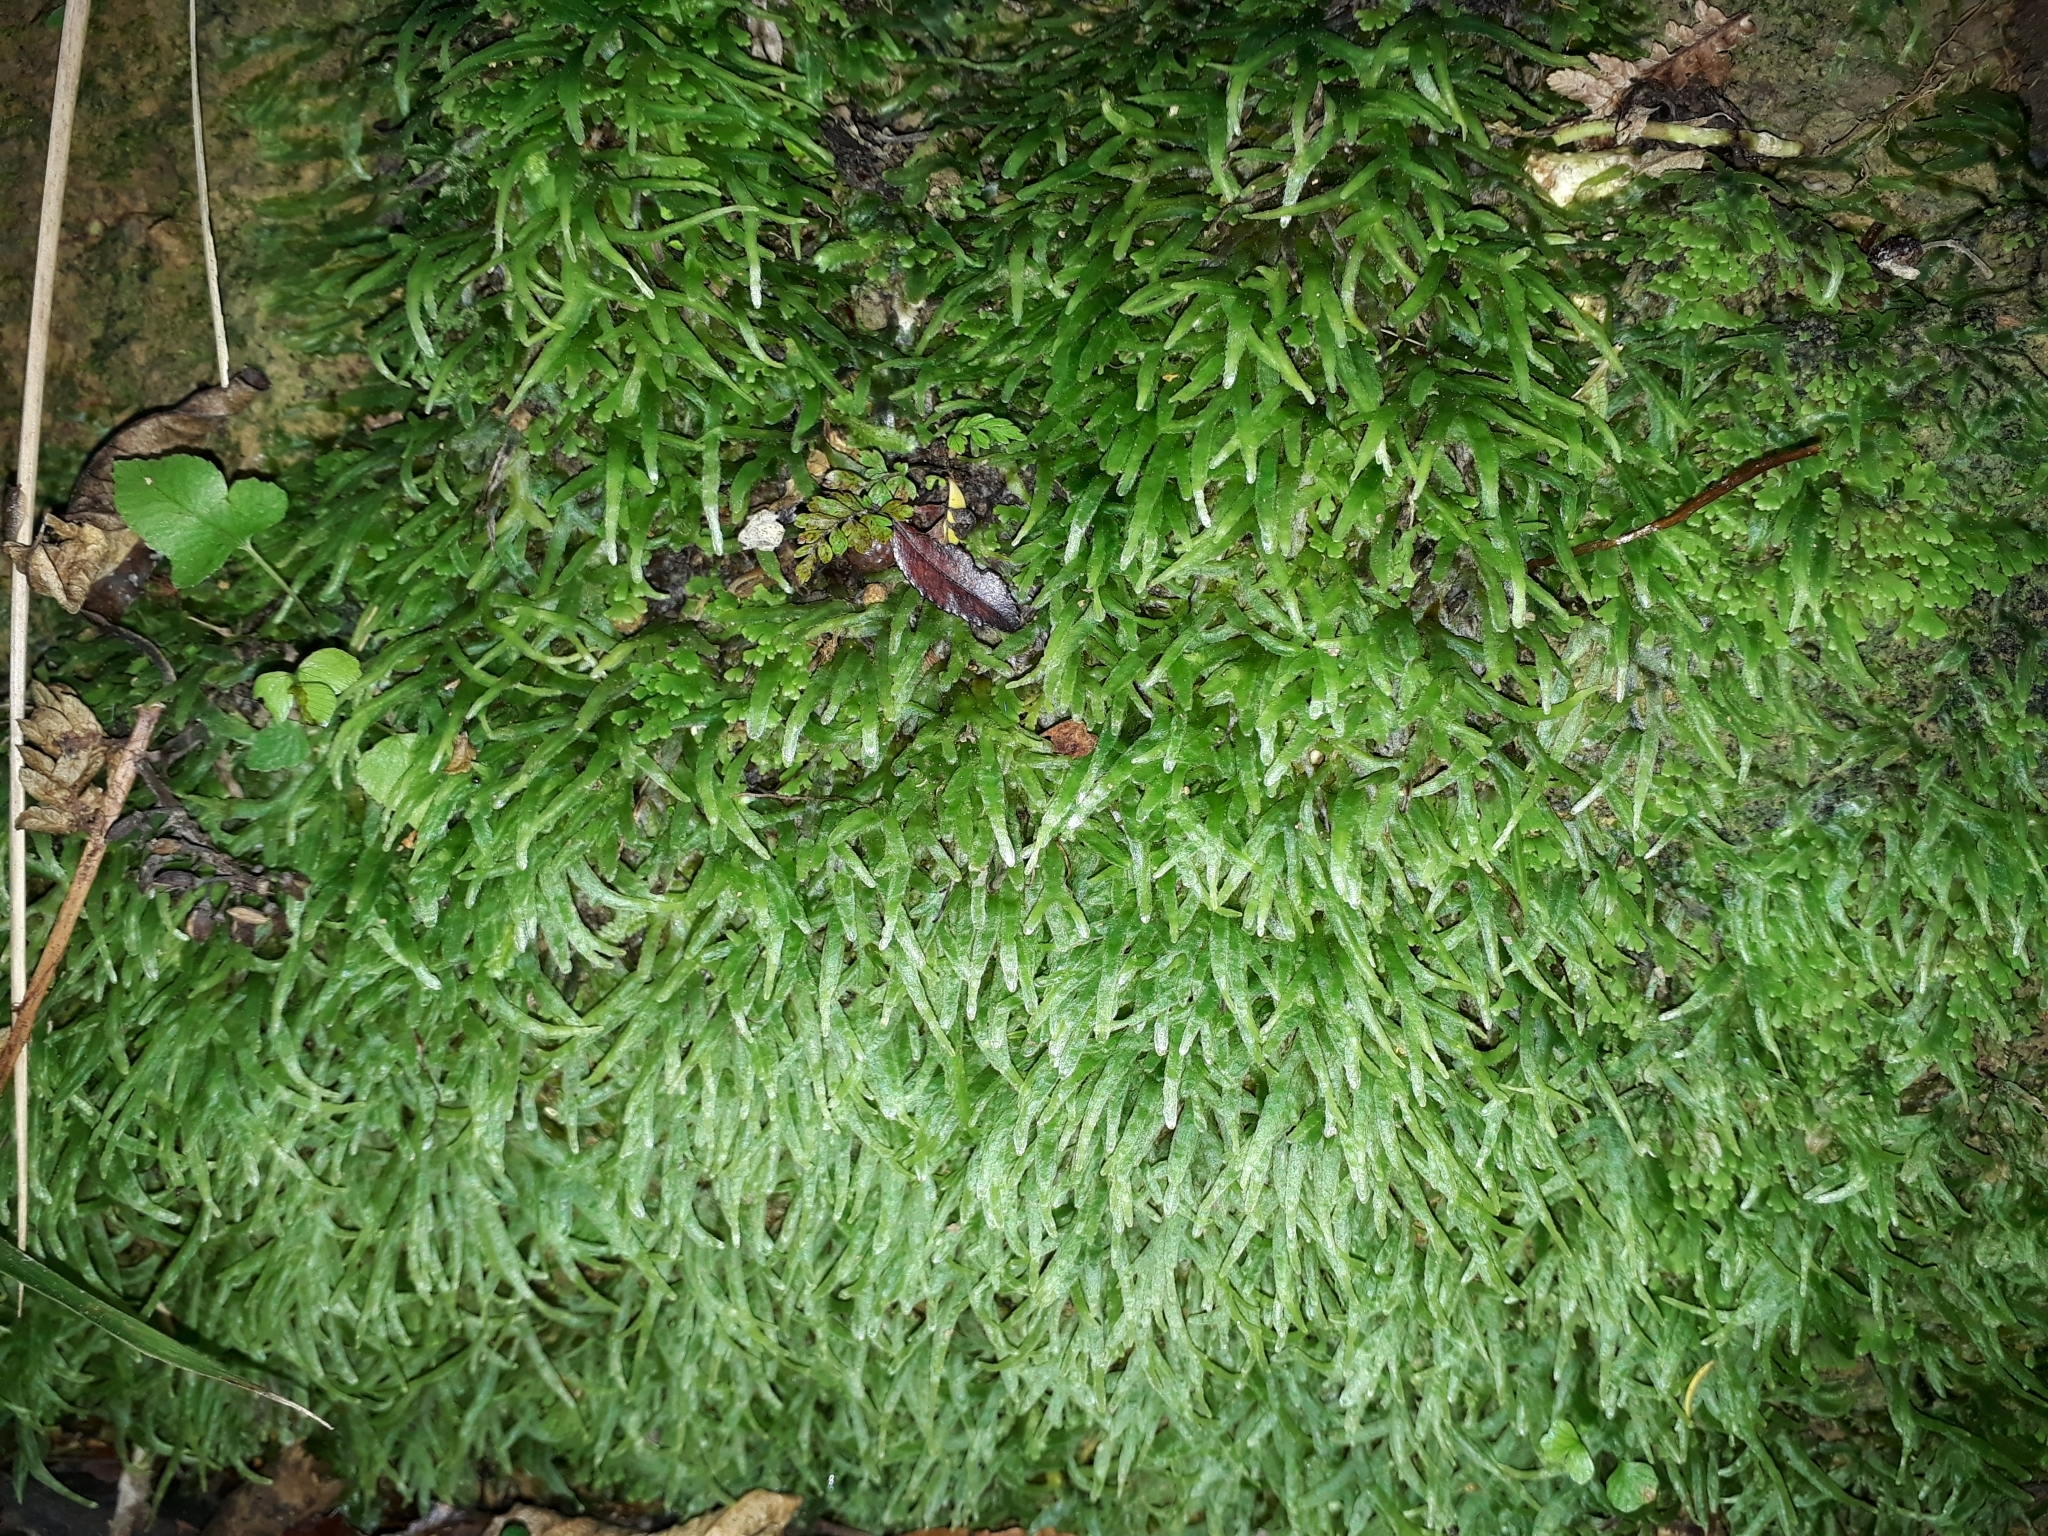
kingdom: Plantae
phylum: Marchantiophyta
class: Jungermanniopsida
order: Pallaviciniales
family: Pallaviciniaceae
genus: Prionothallus
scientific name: Prionothallus xiphoides
